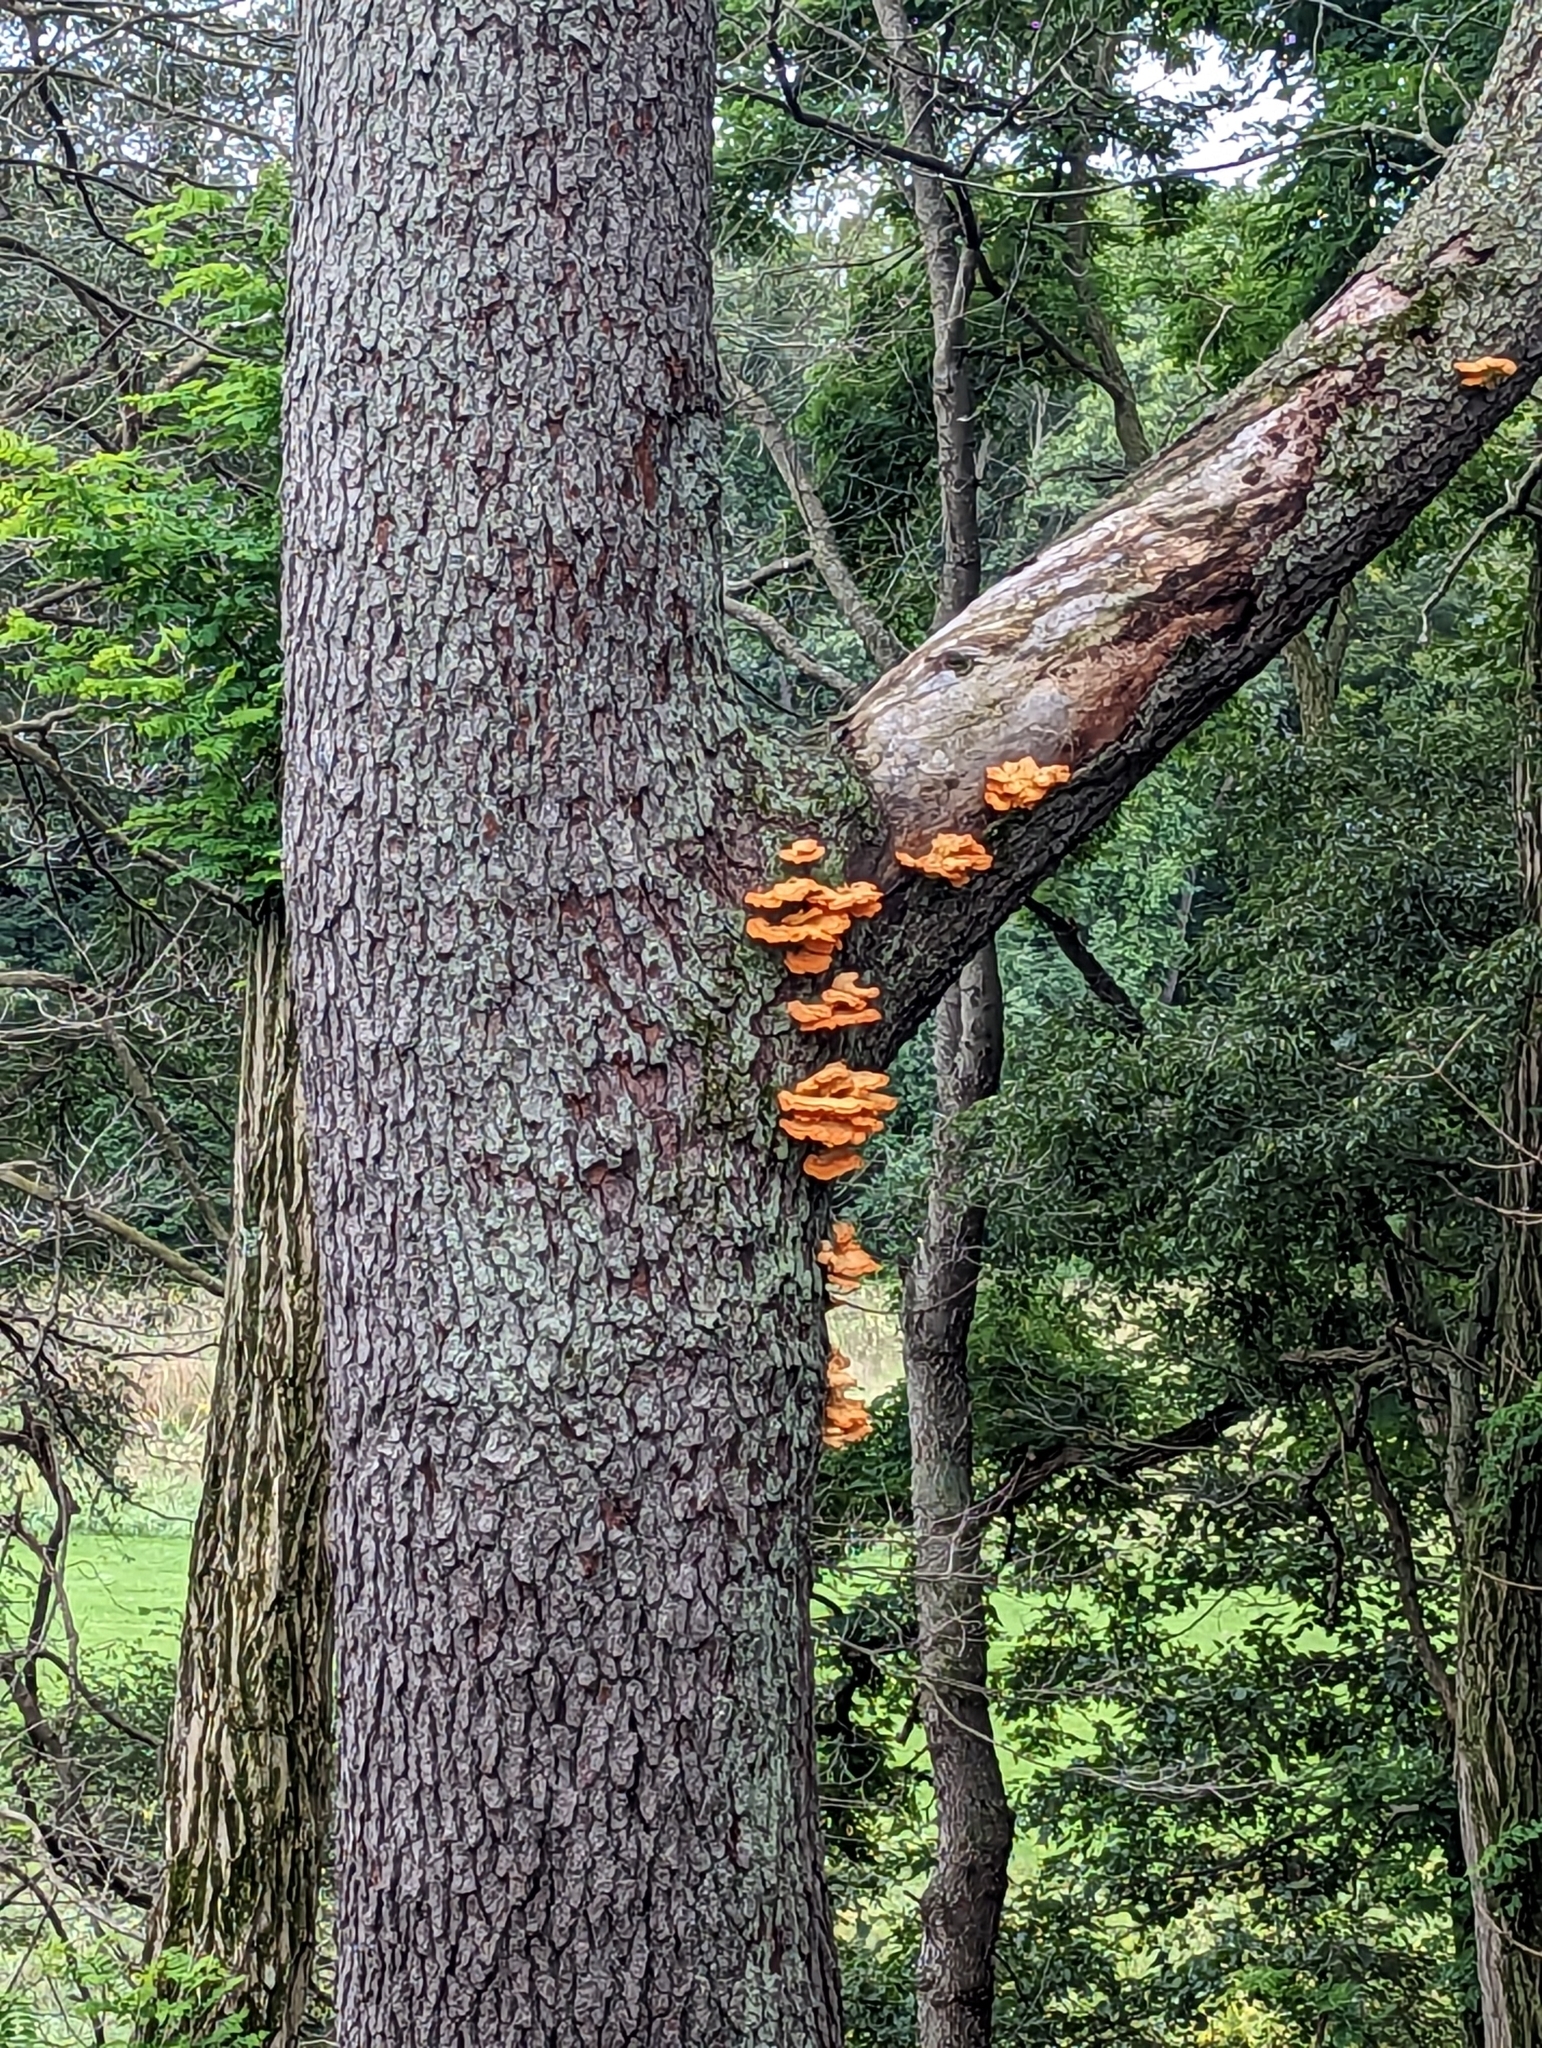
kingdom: Fungi
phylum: Basidiomycota
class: Agaricomycetes
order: Polyporales
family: Laetiporaceae
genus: Laetiporus
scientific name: Laetiporus sulphureus
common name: Chicken of the woods
